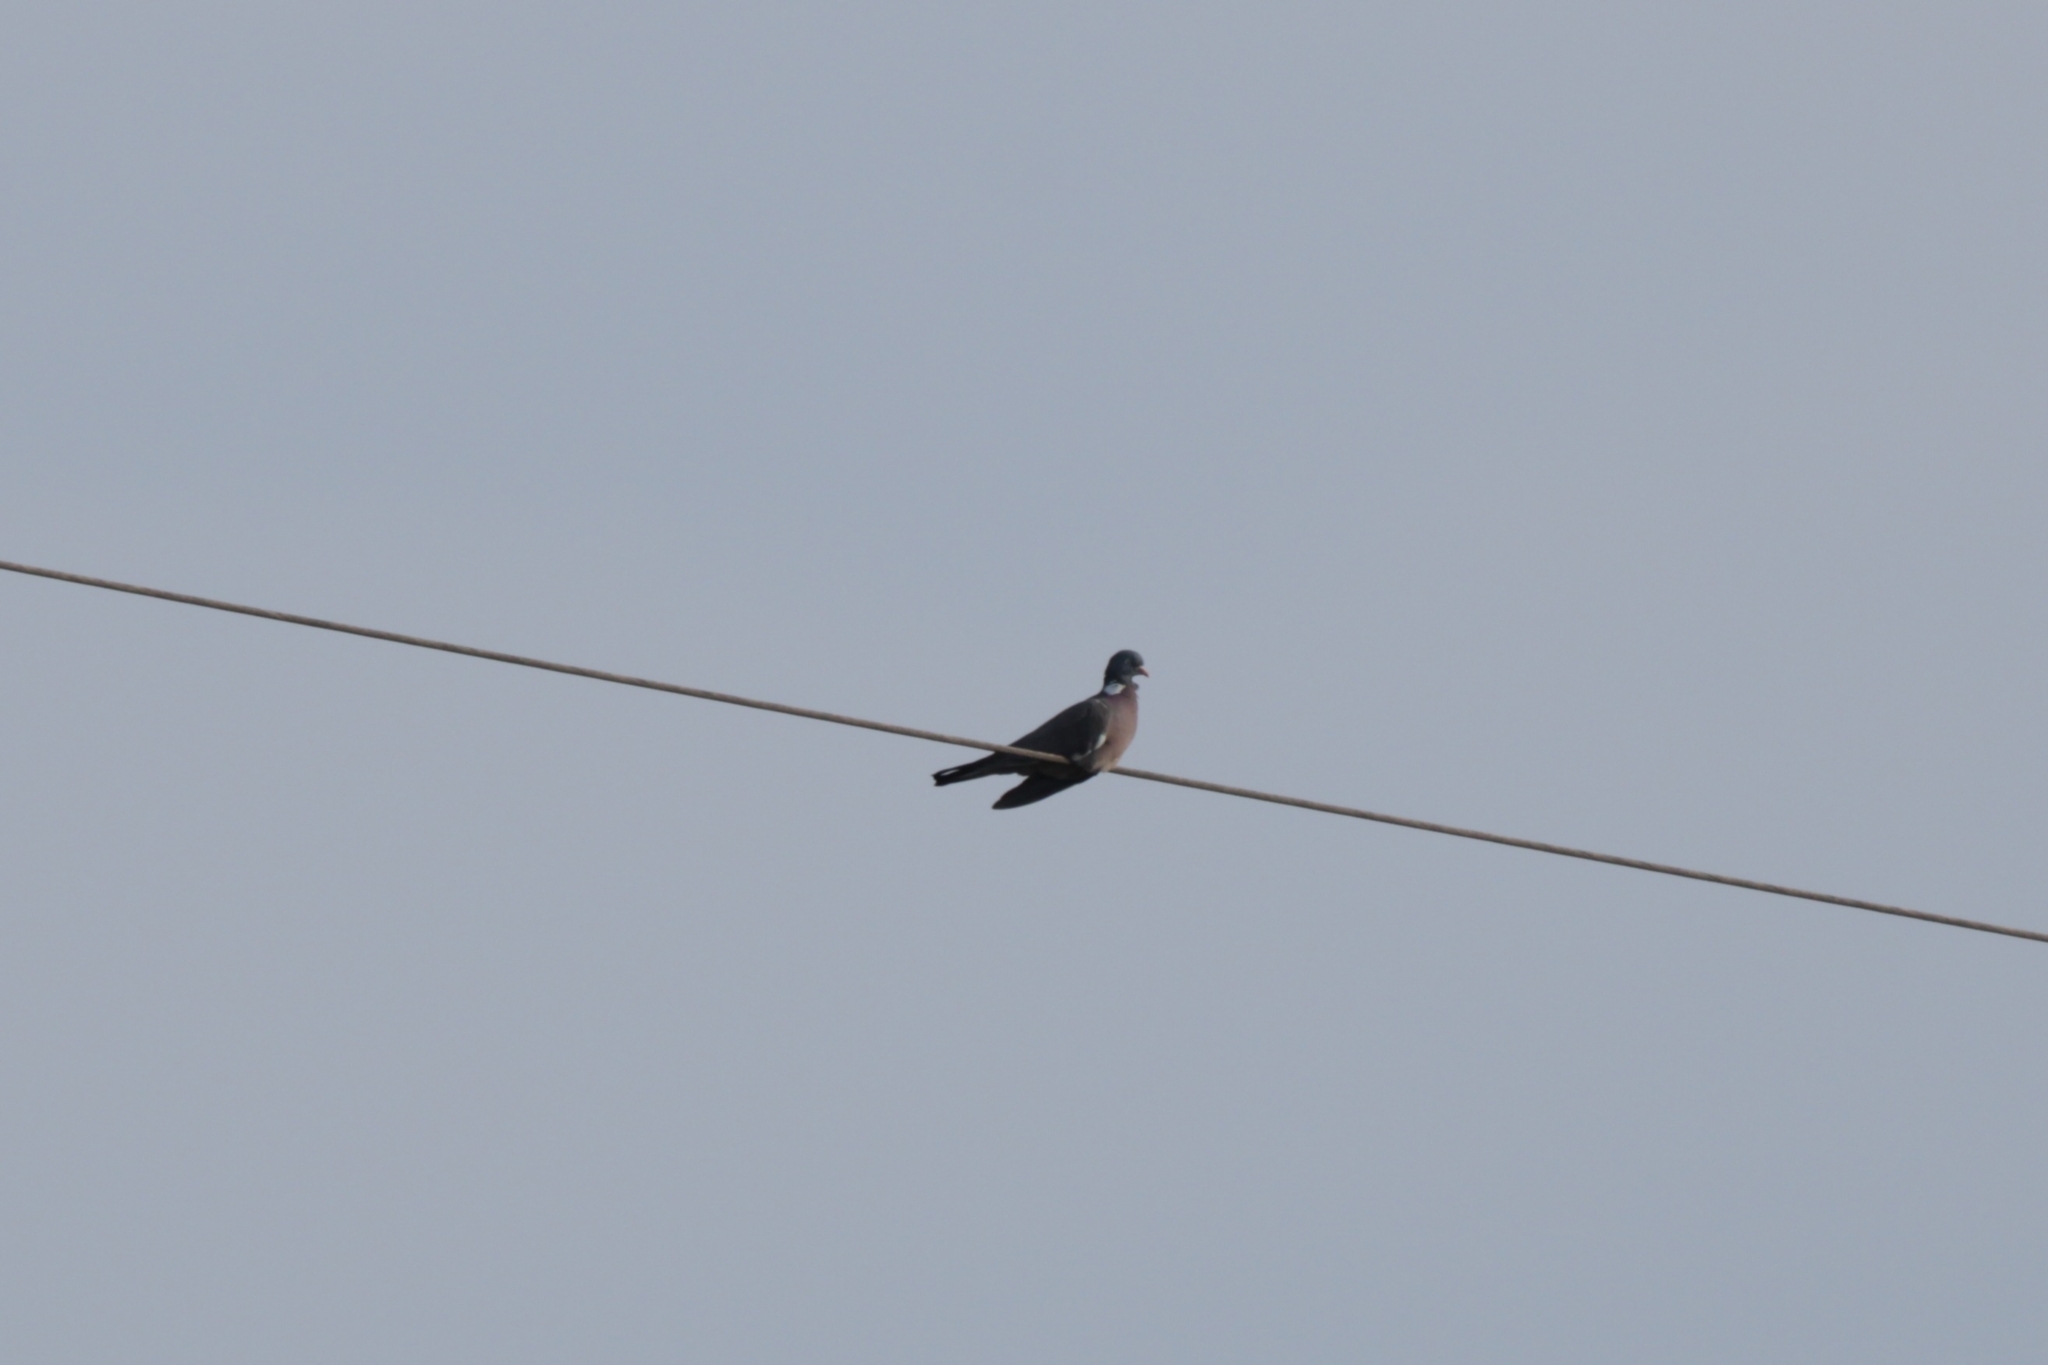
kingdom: Animalia
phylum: Chordata
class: Aves
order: Columbiformes
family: Columbidae
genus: Columba
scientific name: Columba palumbus
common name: Common wood pigeon
